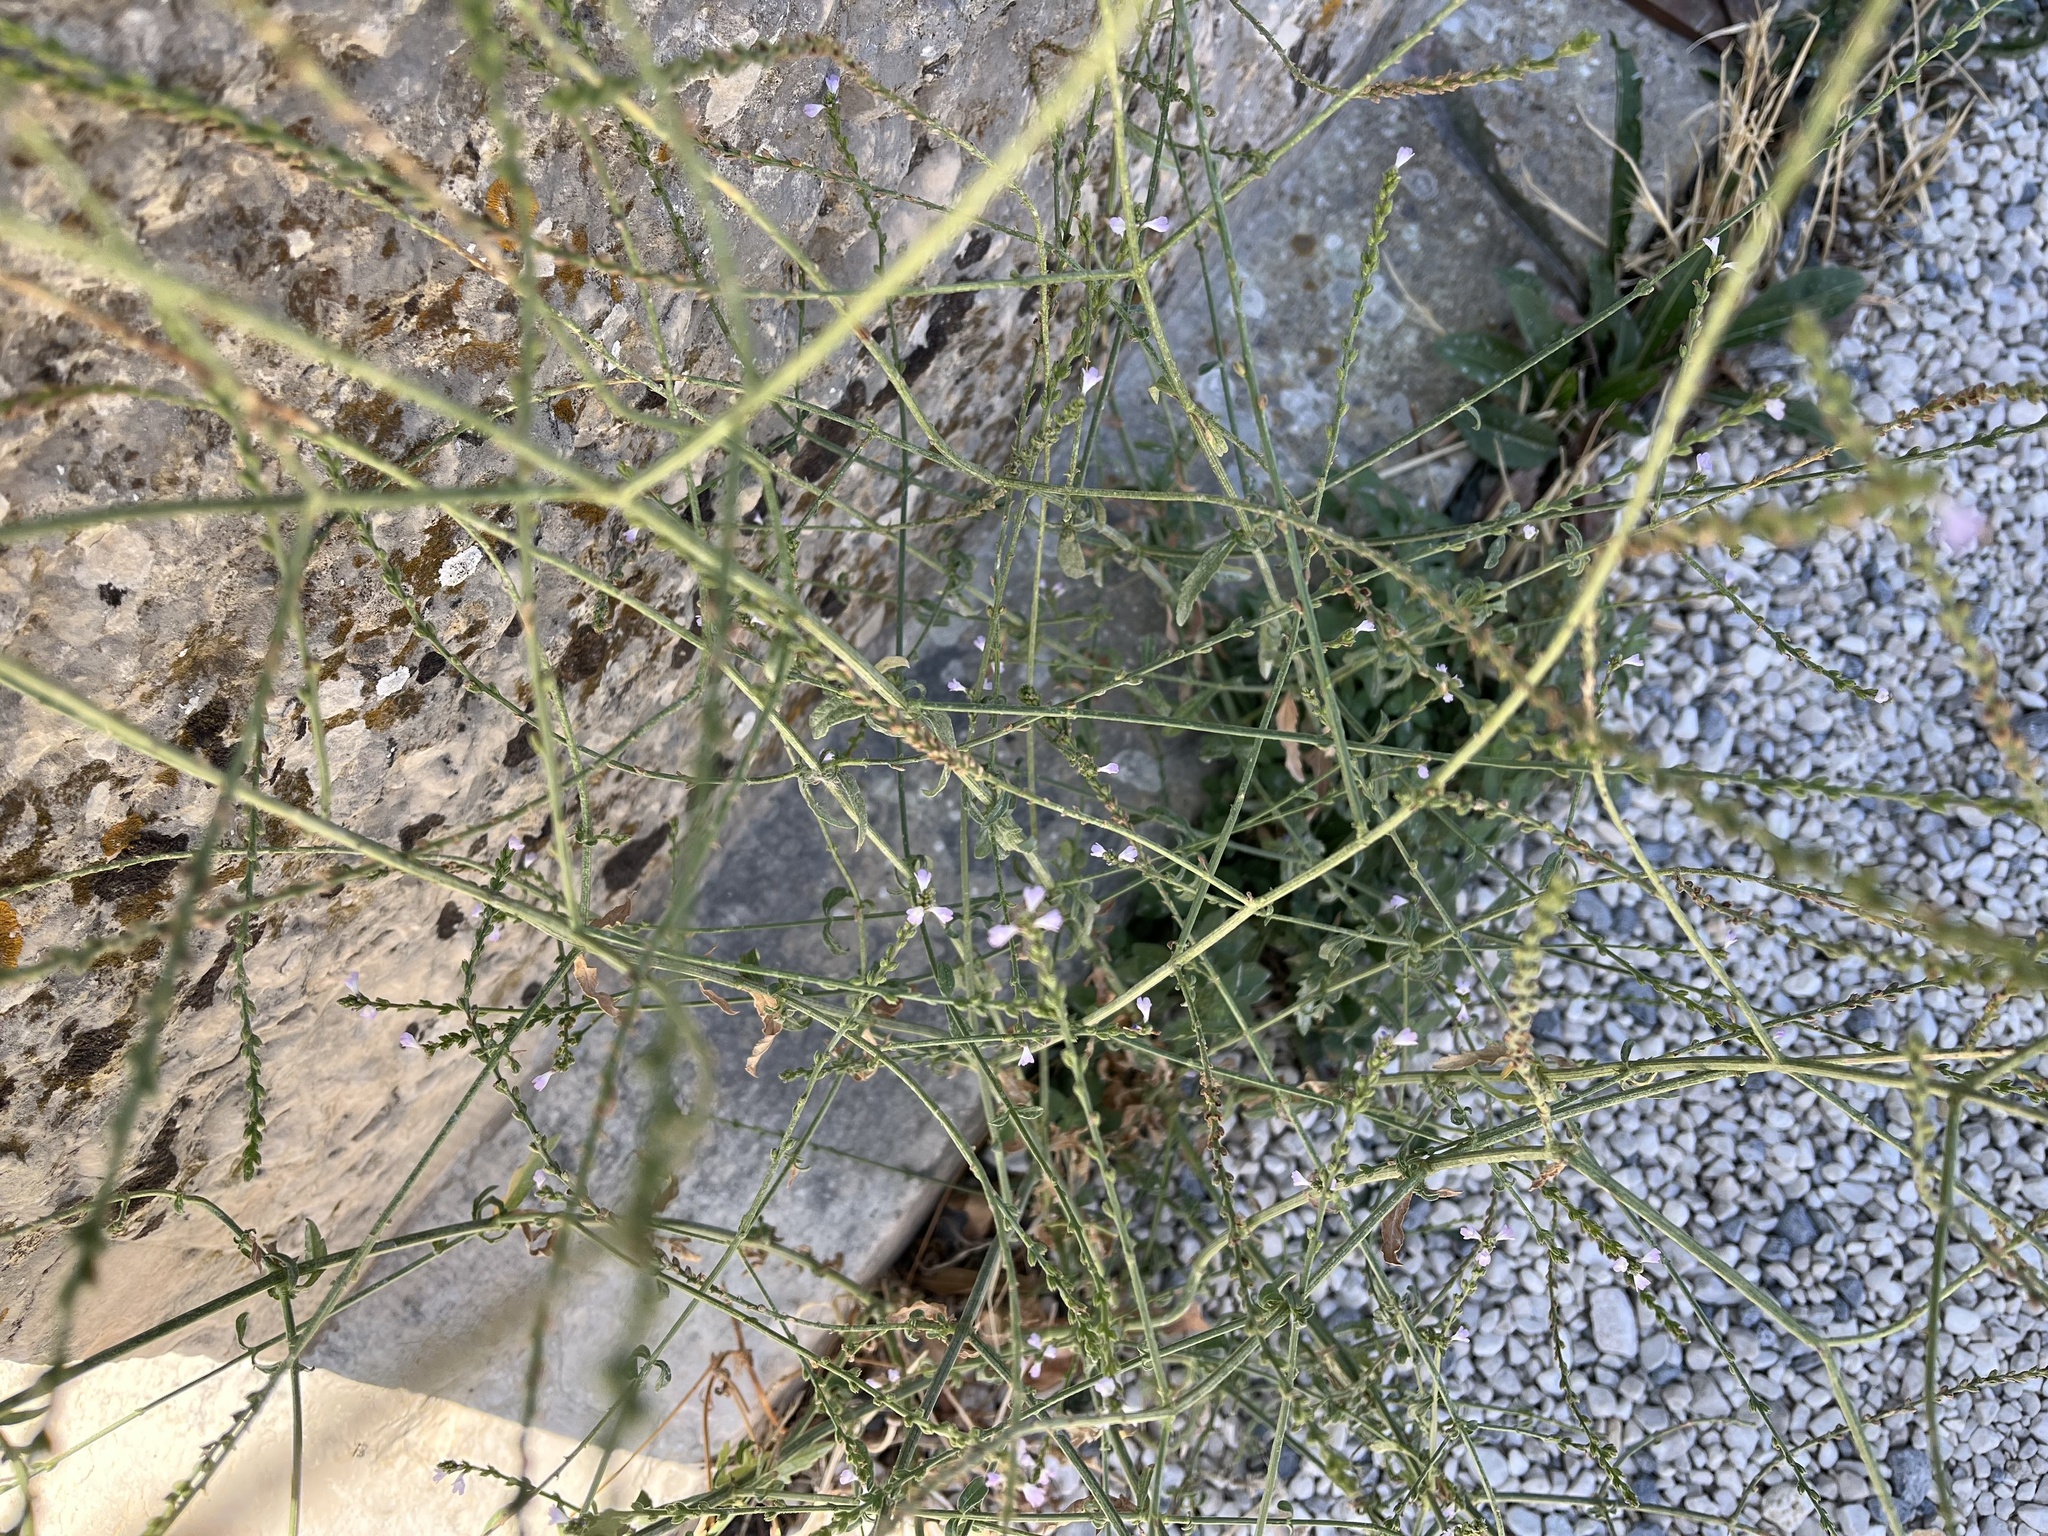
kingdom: Plantae
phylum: Tracheophyta
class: Magnoliopsida
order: Lamiales
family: Verbenaceae
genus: Verbena
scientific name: Verbena officinalis
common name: Vervain
